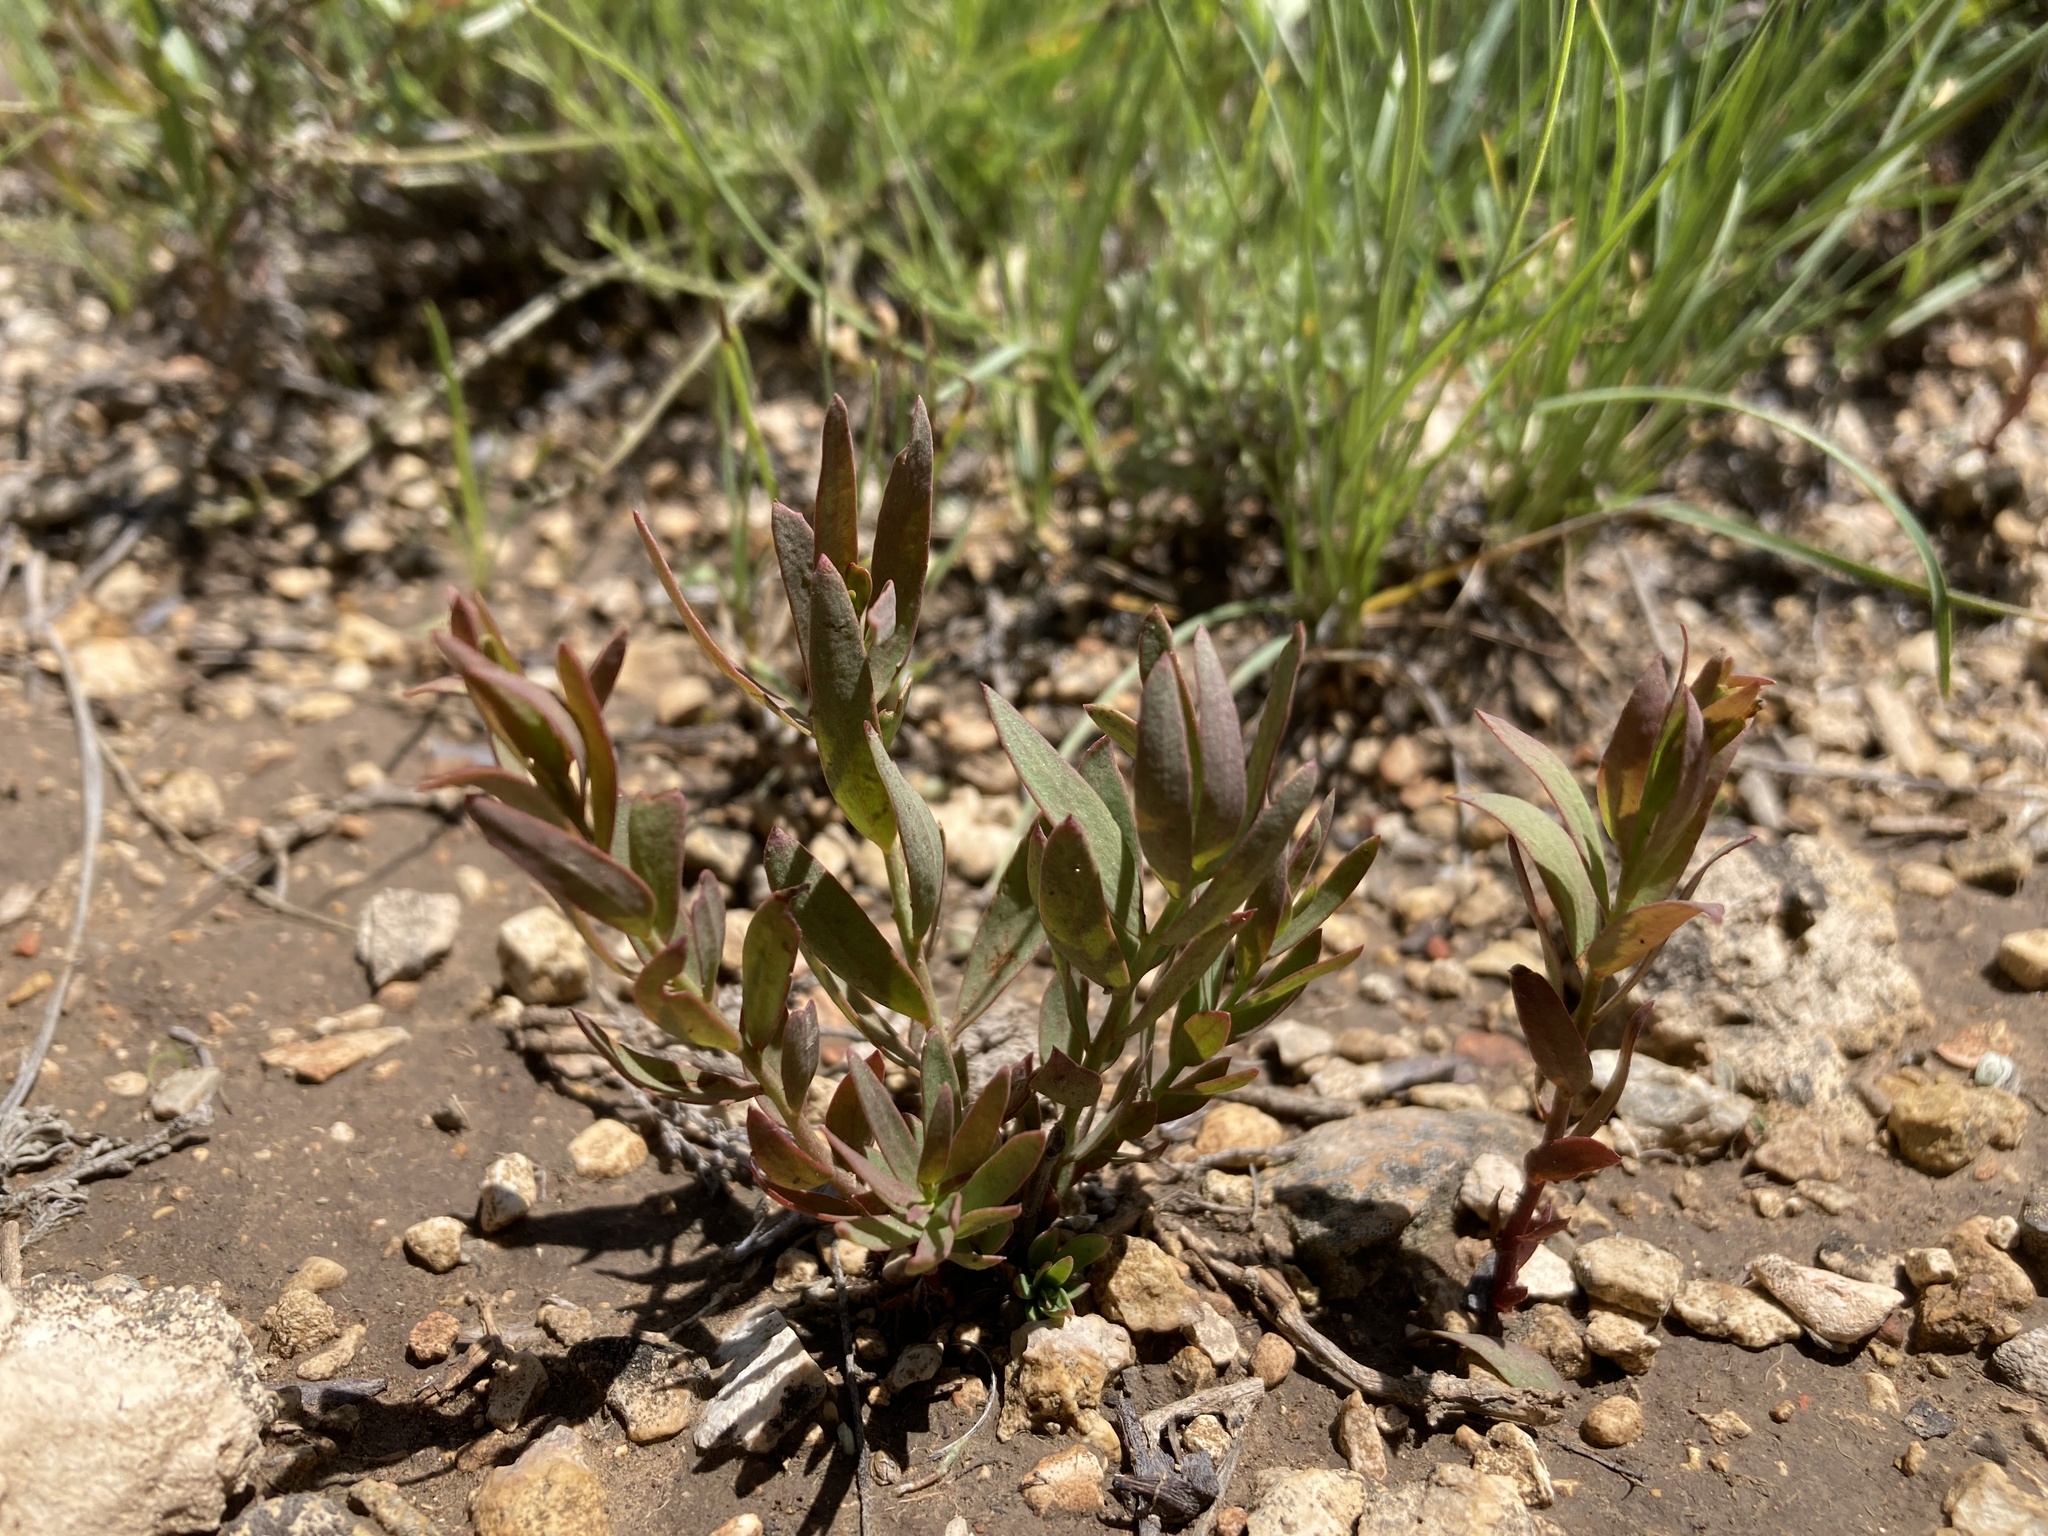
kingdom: Plantae
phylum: Tracheophyta
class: Magnoliopsida
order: Santalales
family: Comandraceae
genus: Comandra
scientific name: Comandra umbellata
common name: Bastard toadflax
